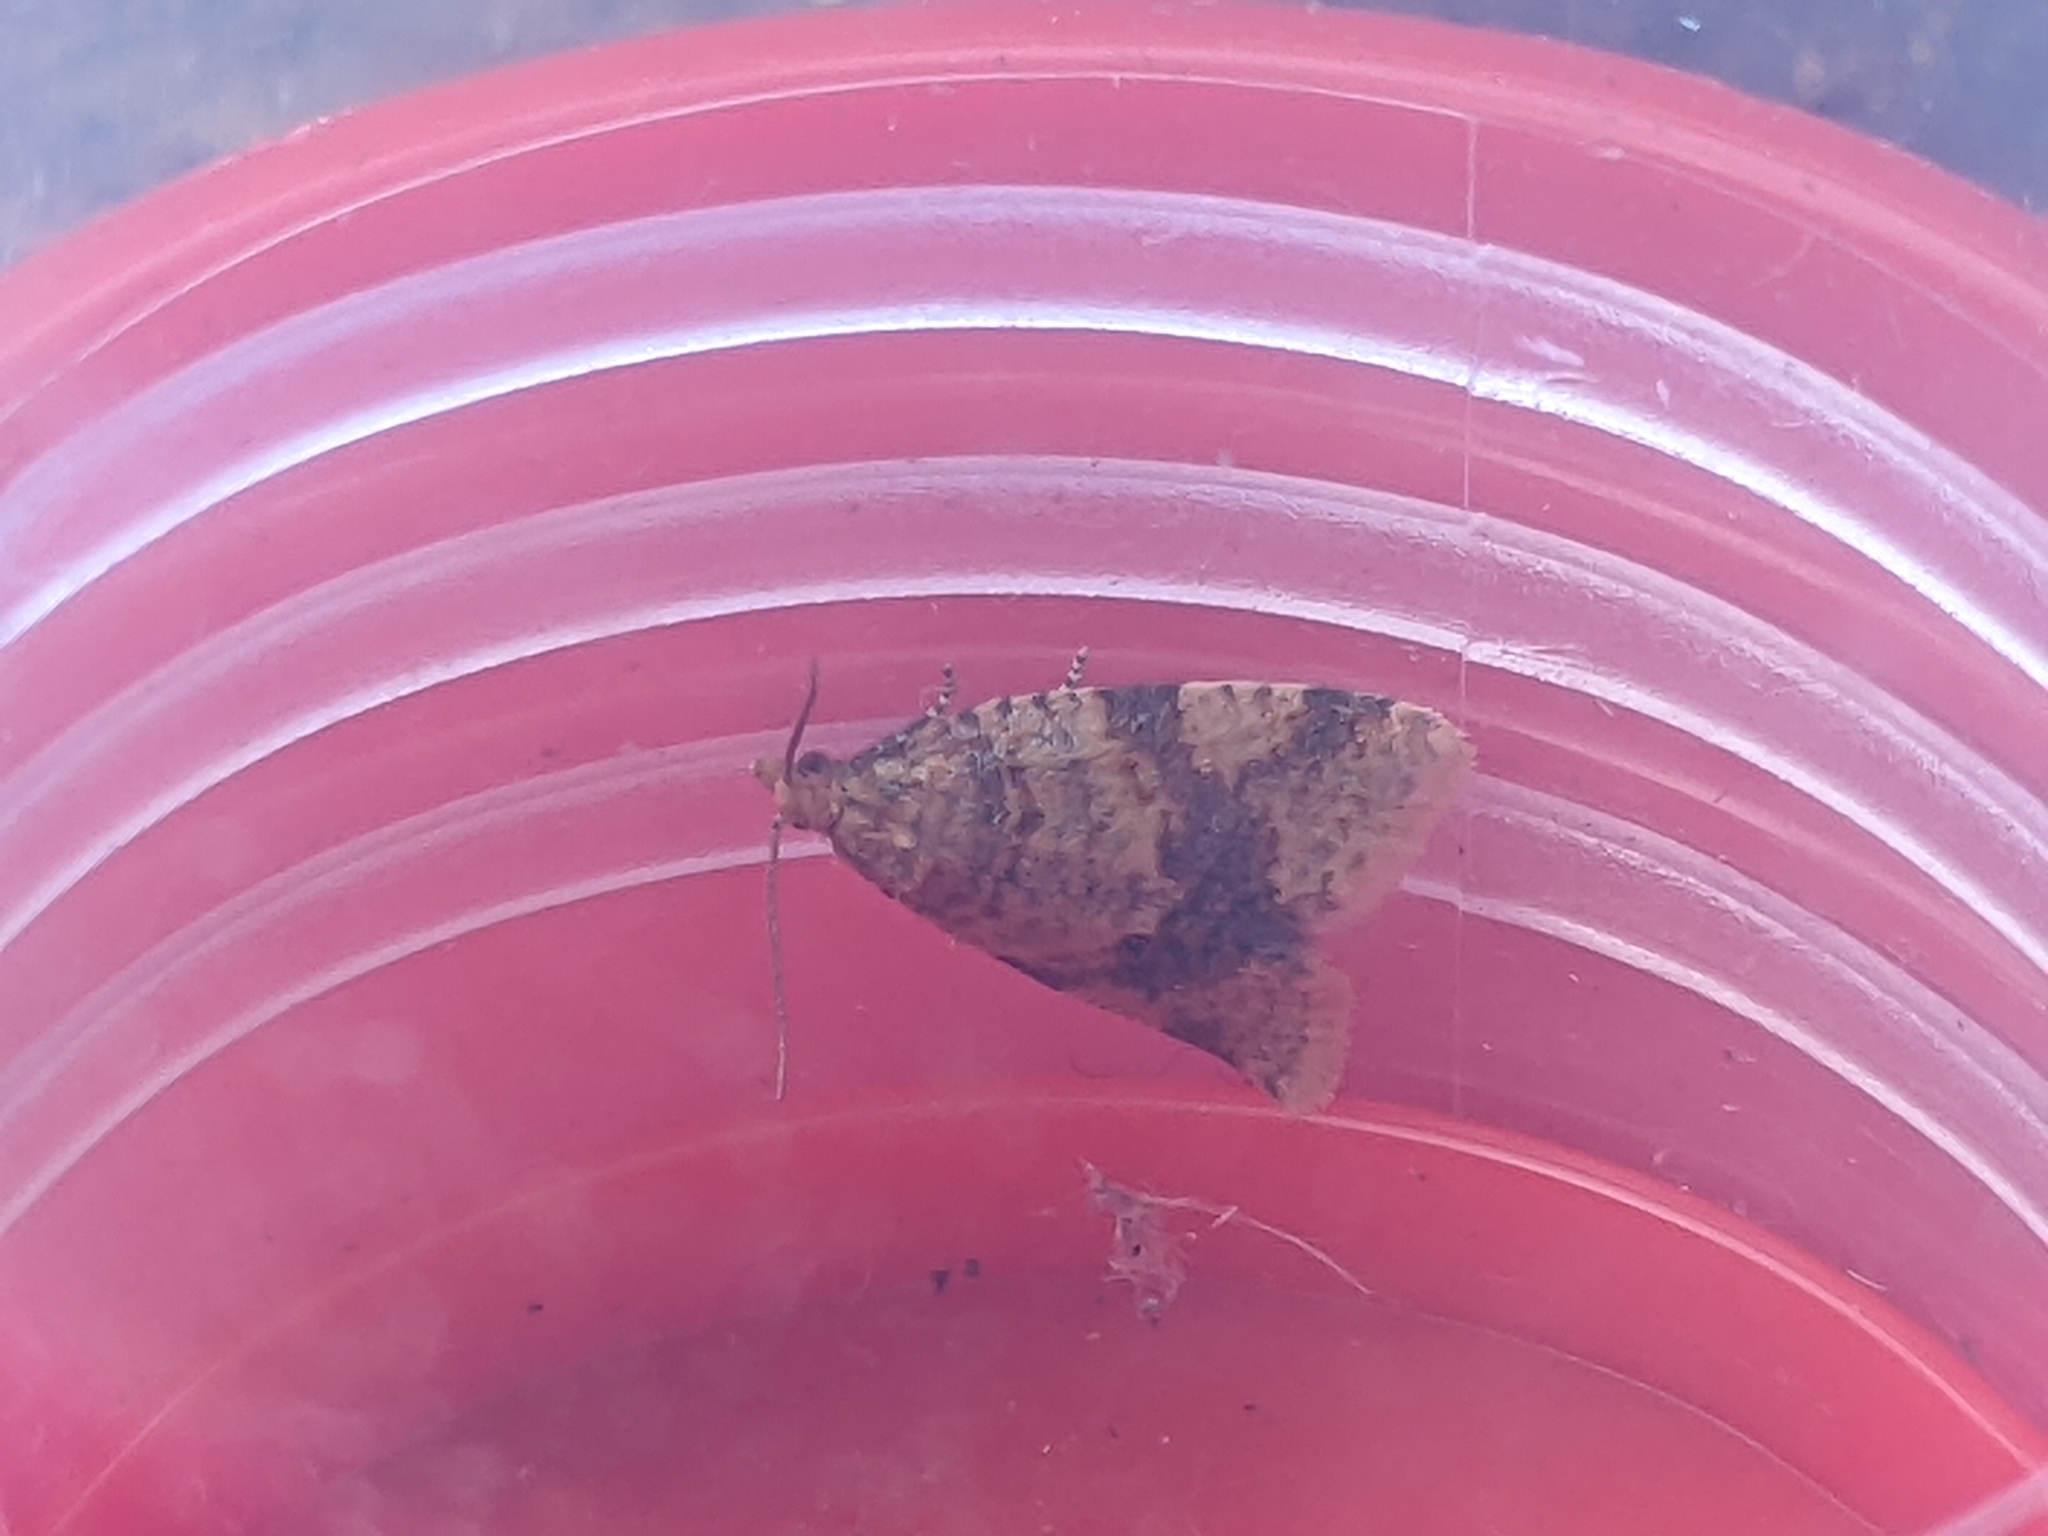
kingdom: Animalia
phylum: Arthropoda
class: Insecta
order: Lepidoptera
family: Tortricidae
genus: Epagoge
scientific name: Epagoge grotiana
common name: Brown-barred twist
